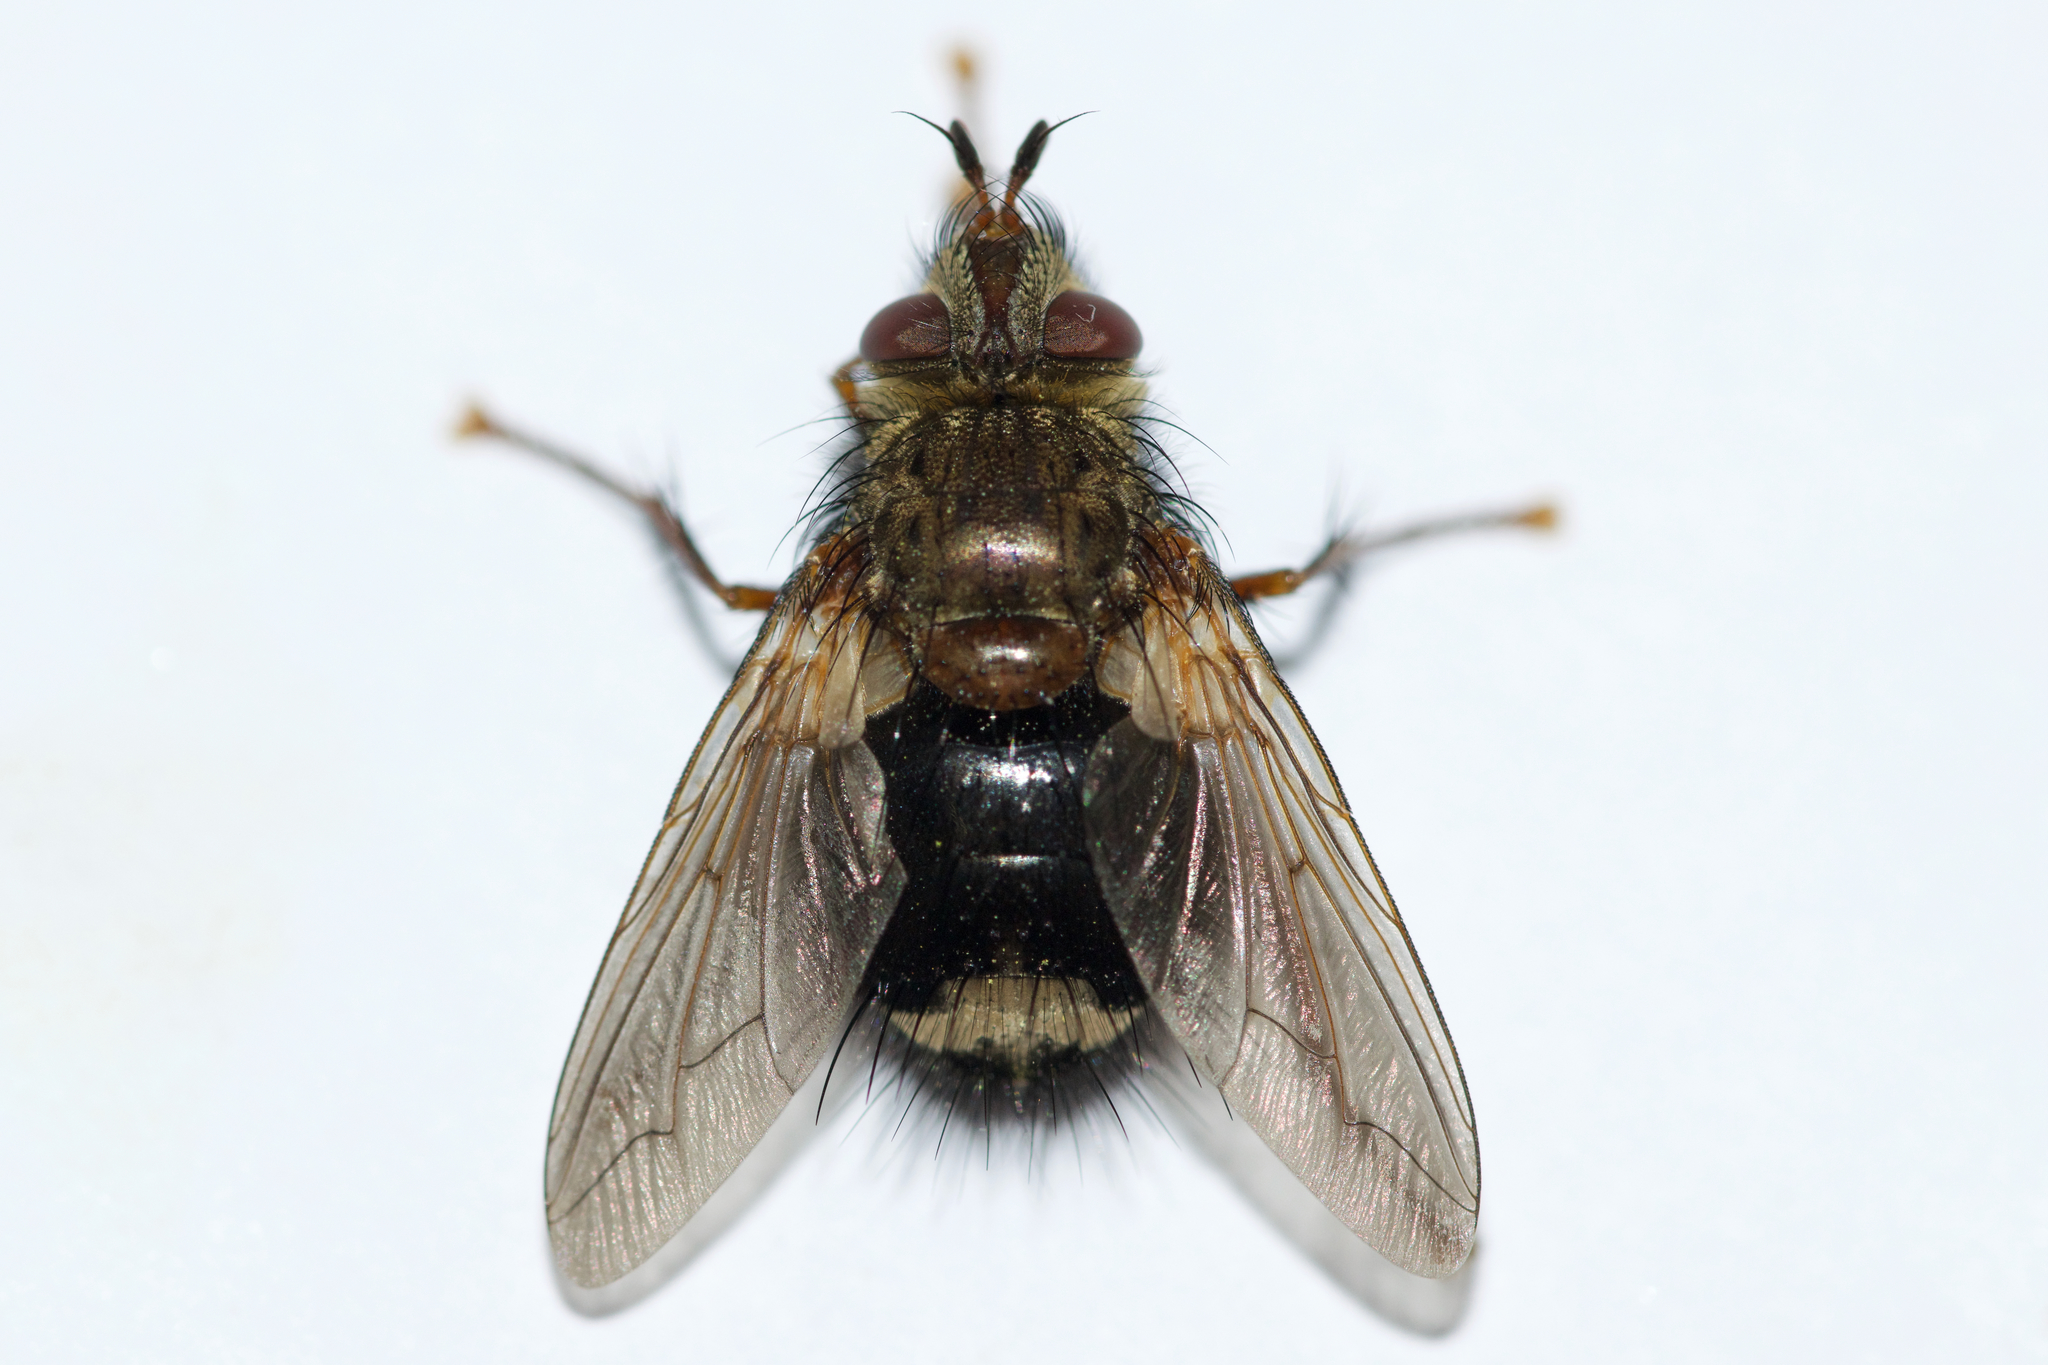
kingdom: Animalia
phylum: Arthropoda
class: Insecta
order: Diptera
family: Tachinidae
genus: Epalpus
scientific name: Epalpus signifer
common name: Early tachinid fly
